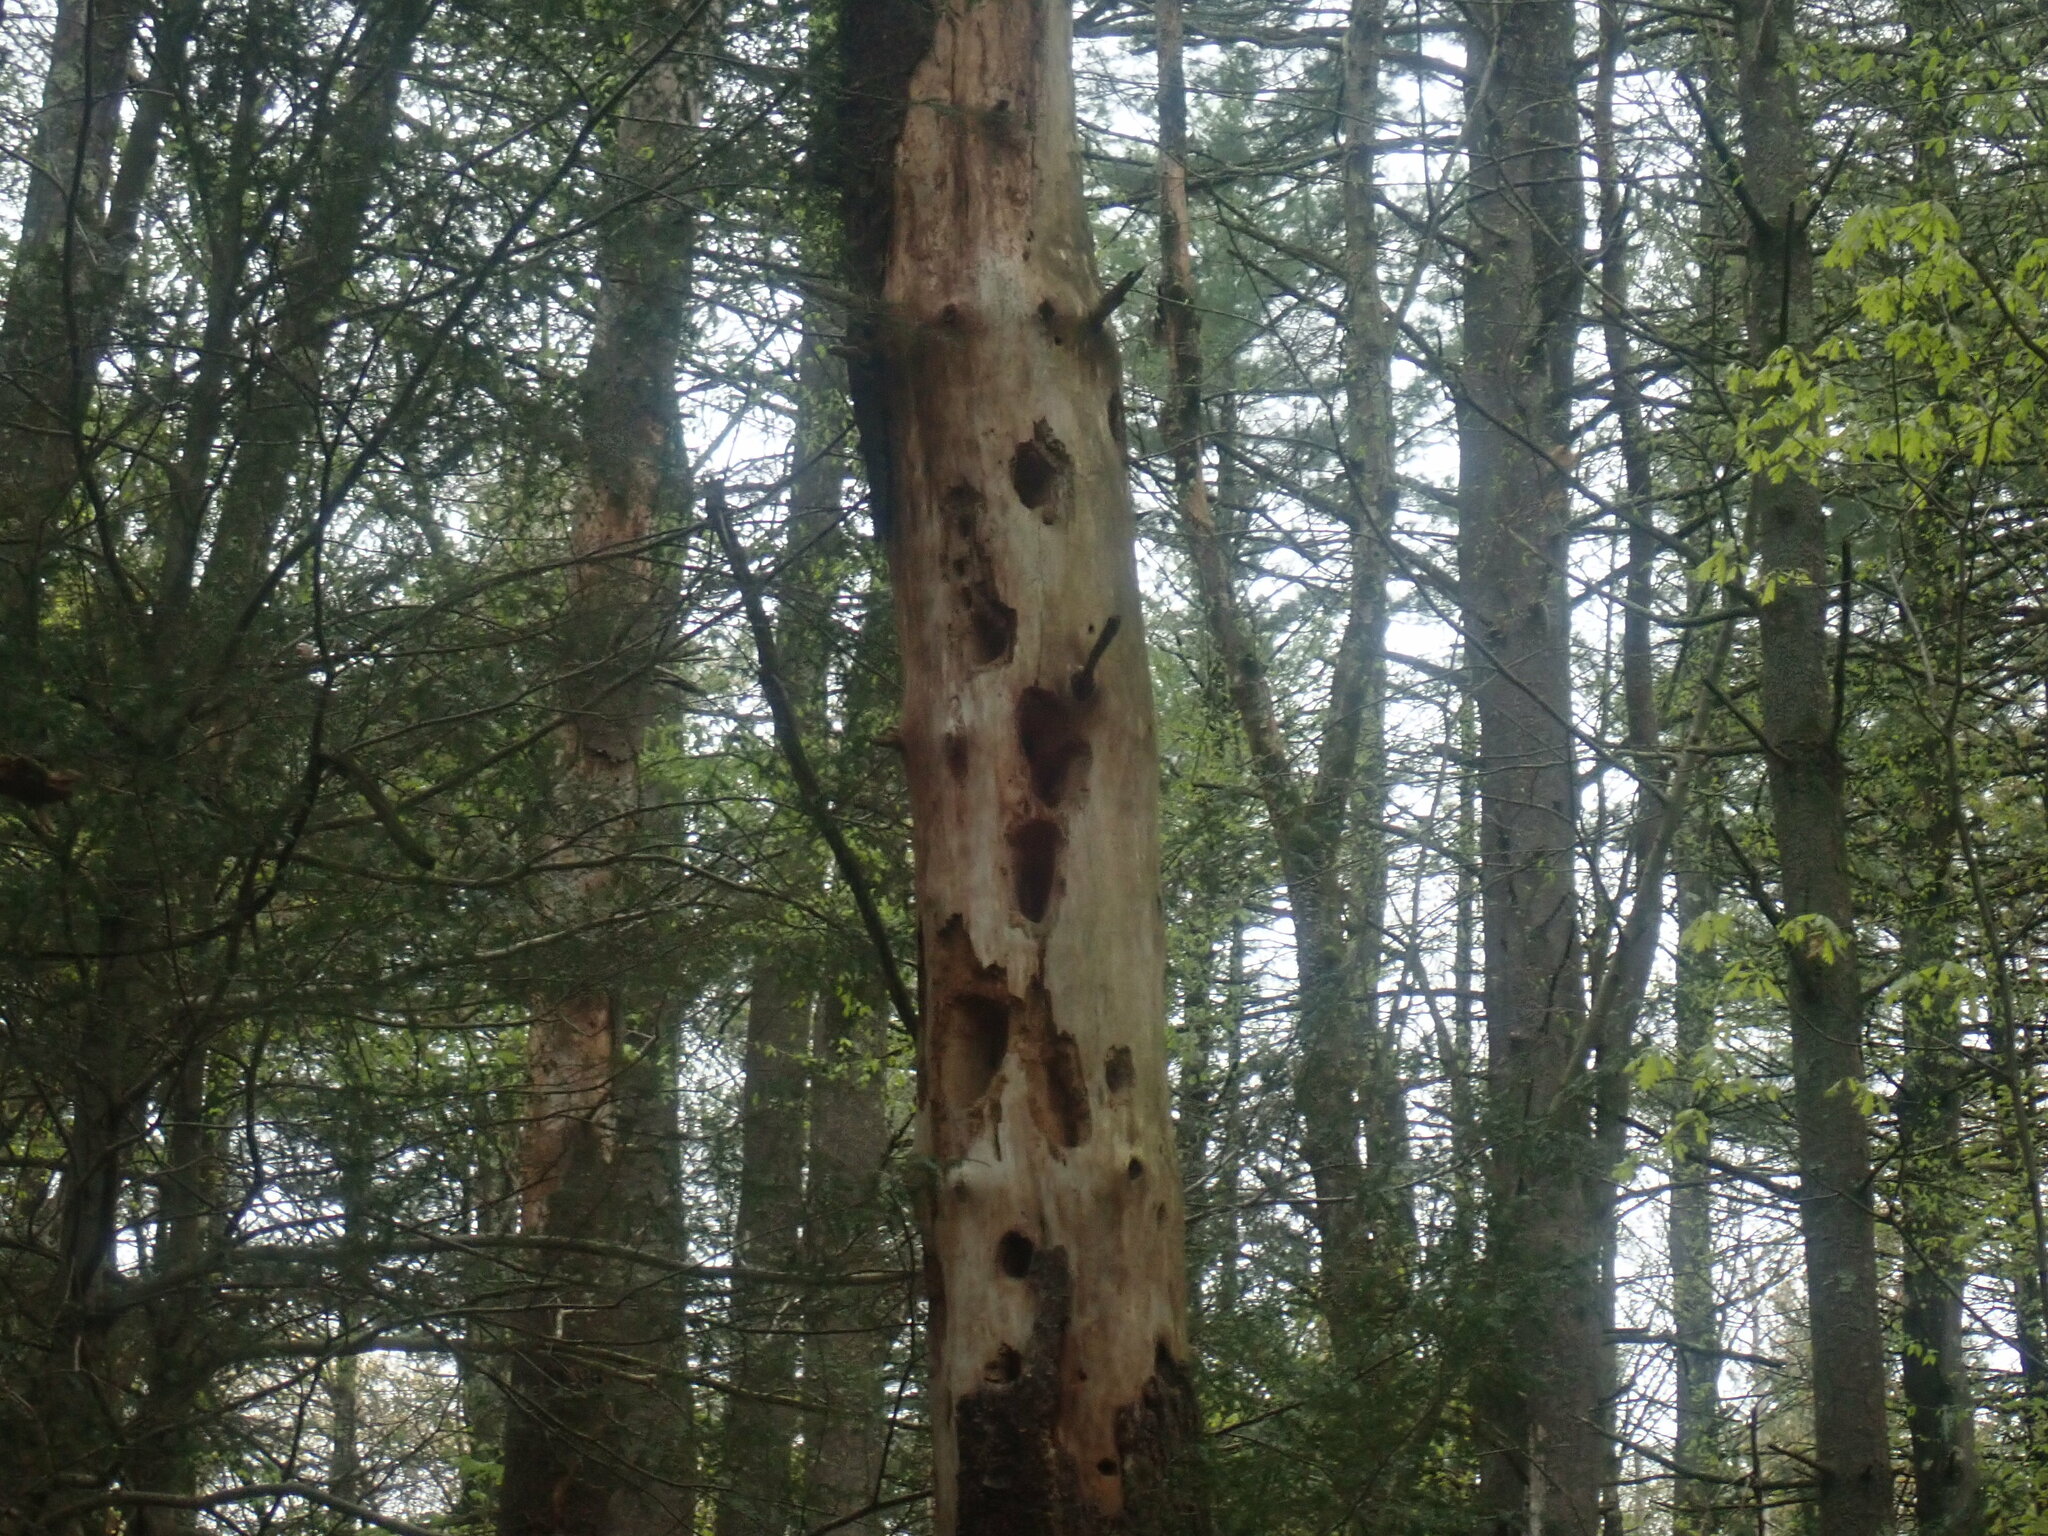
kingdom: Animalia
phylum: Chordata
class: Aves
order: Piciformes
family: Picidae
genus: Dryocopus
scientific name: Dryocopus pileatus
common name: Pileated woodpecker
